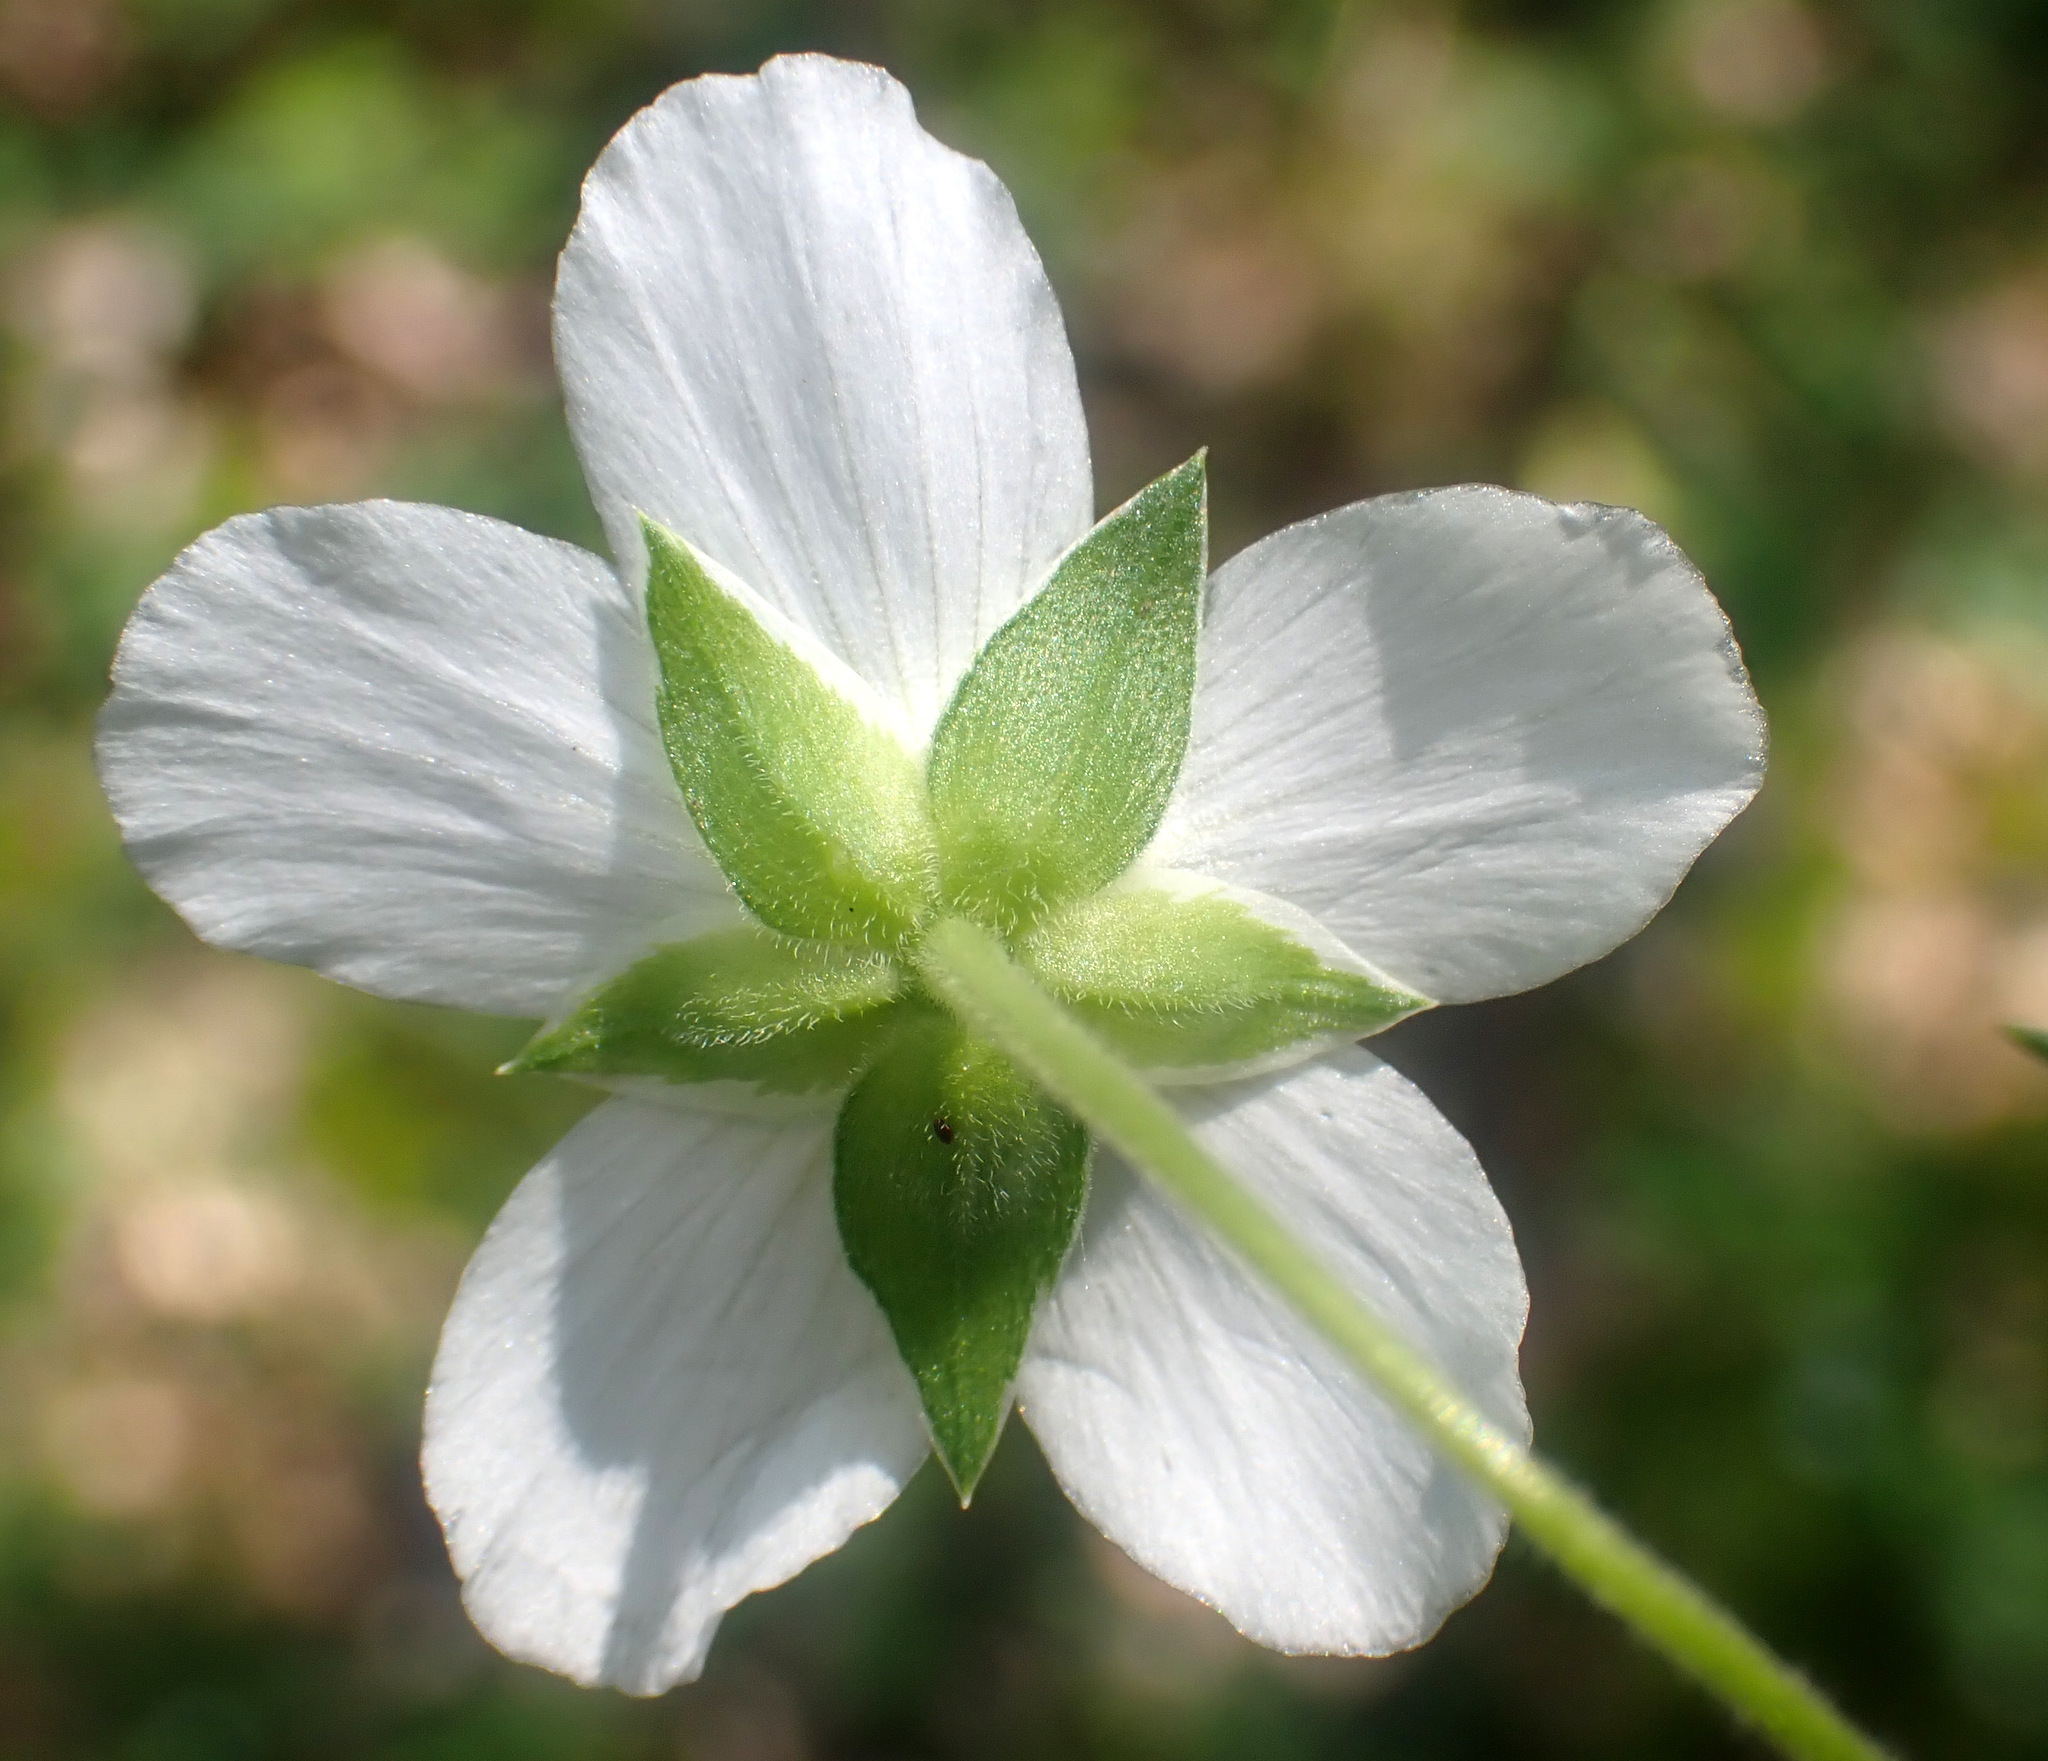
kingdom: Plantae
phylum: Tracheophyta
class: Magnoliopsida
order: Caryophyllales
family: Caryophyllaceae
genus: Arenaria
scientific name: Arenaria montana
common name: Mountain sandwort
